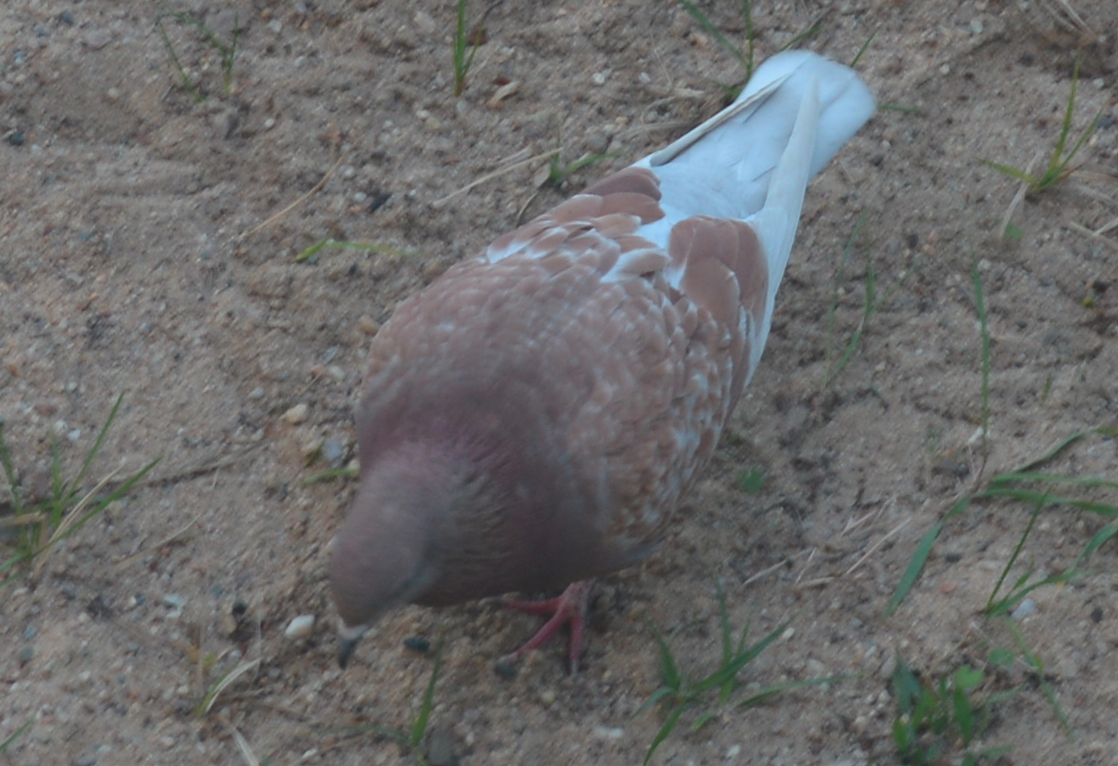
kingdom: Animalia
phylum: Chordata
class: Aves
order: Columbiformes
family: Columbidae
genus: Columba
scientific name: Columba livia
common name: Rock pigeon
